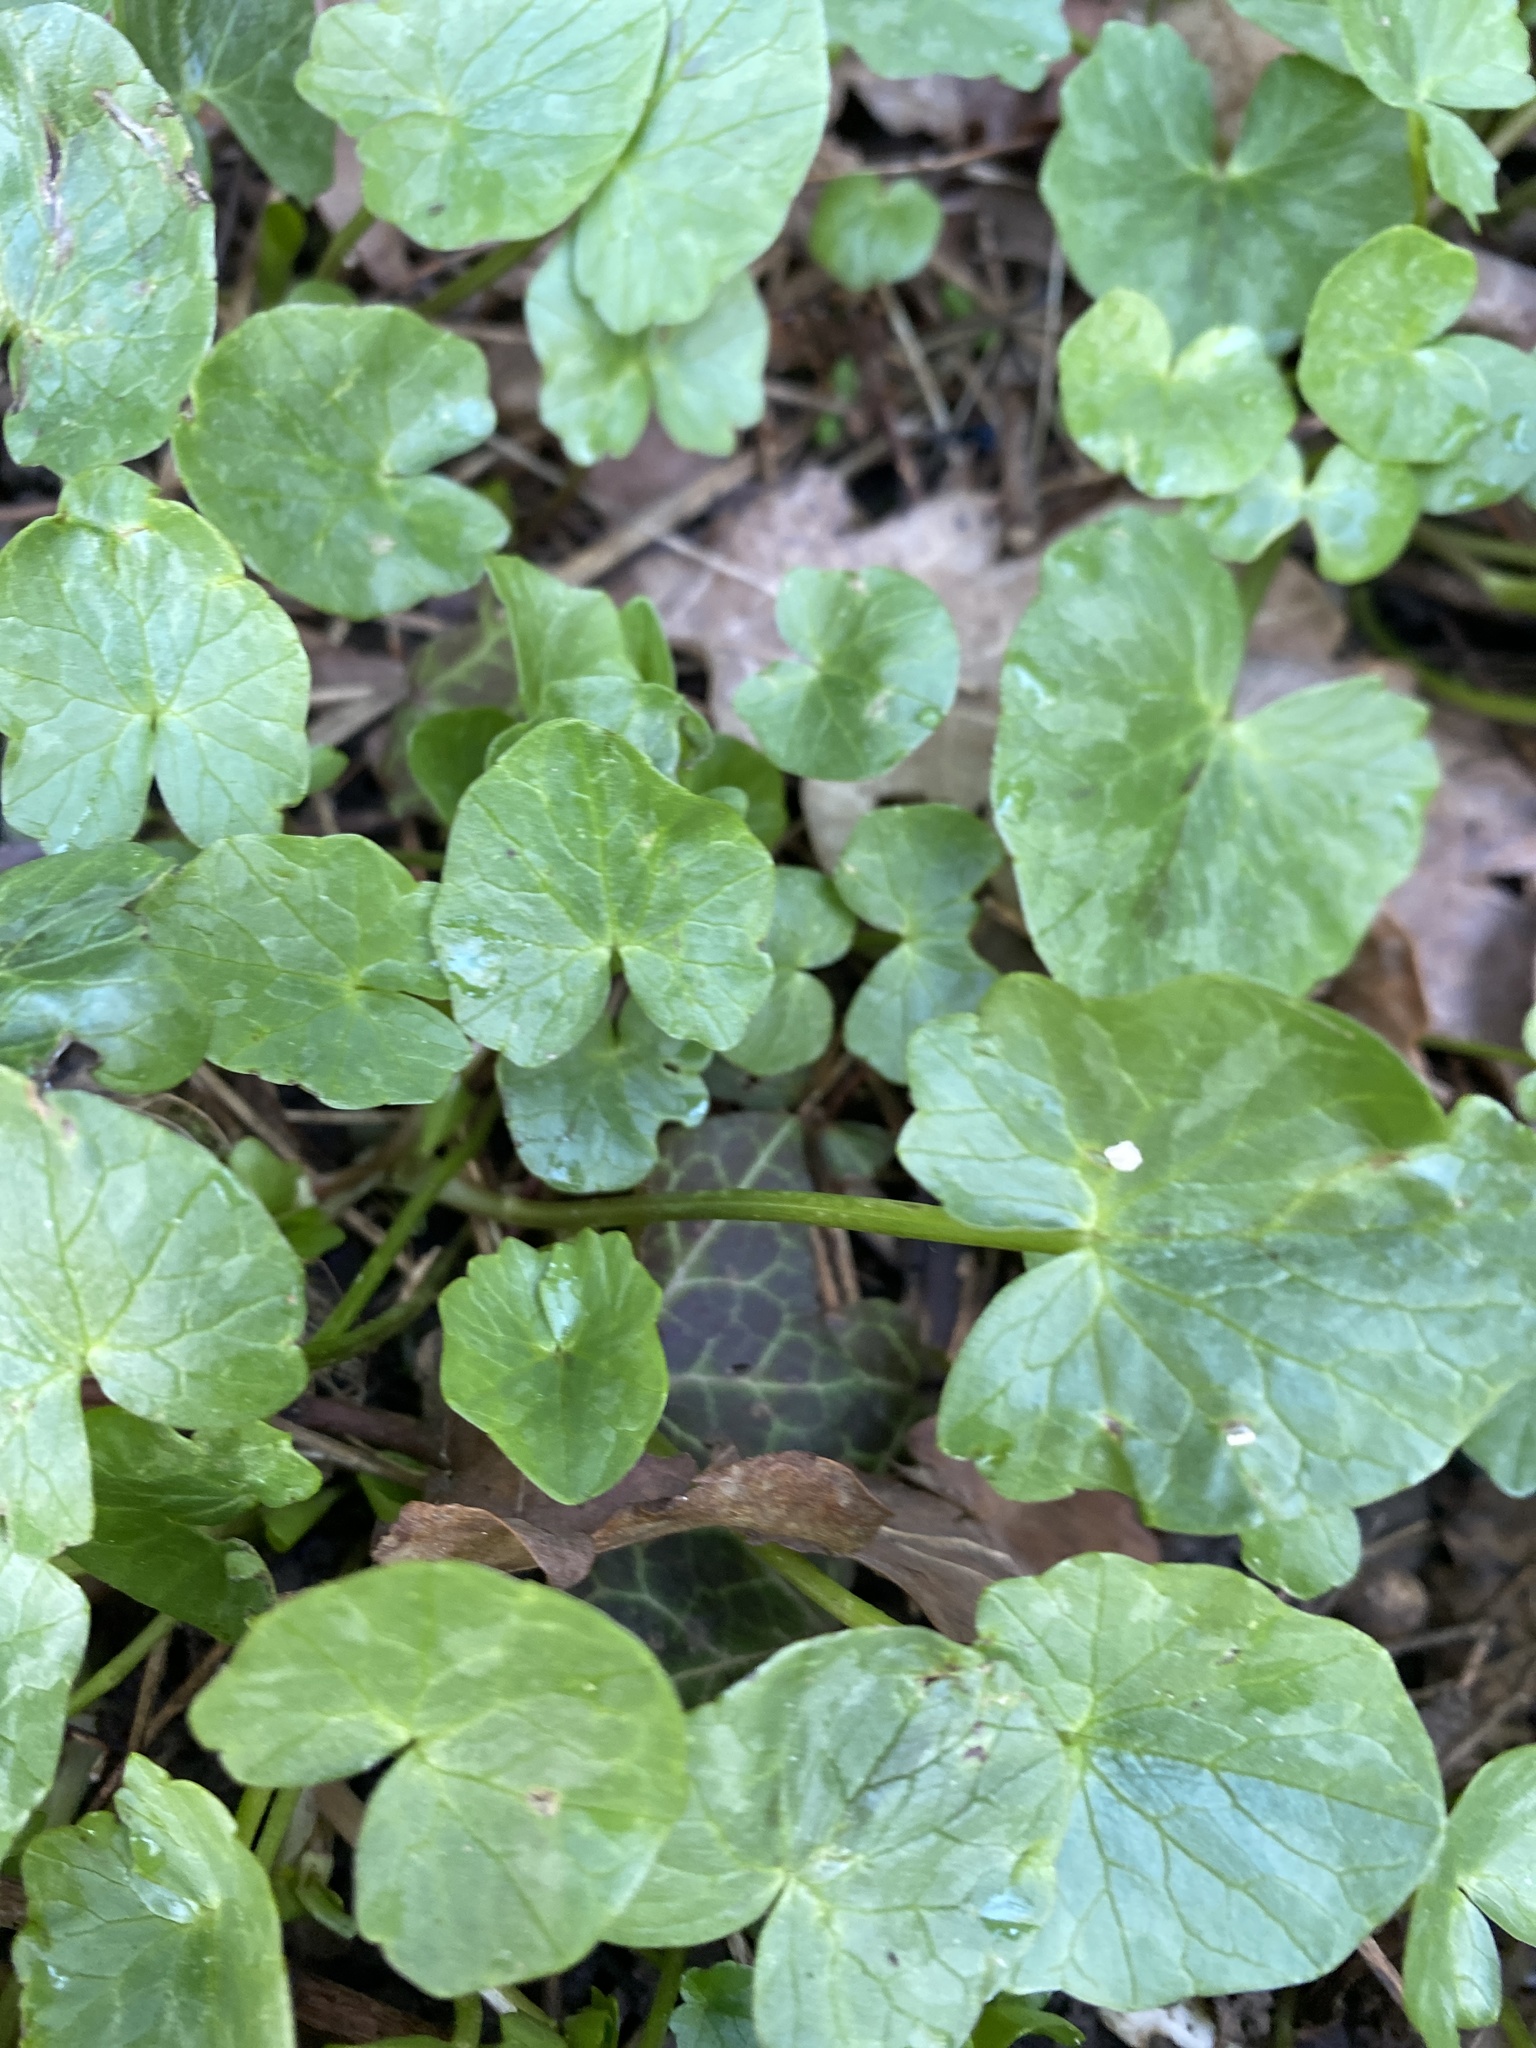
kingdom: Plantae
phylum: Tracheophyta
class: Magnoliopsida
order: Ranunculales
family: Ranunculaceae
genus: Ficaria
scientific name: Ficaria verna
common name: Lesser celandine
